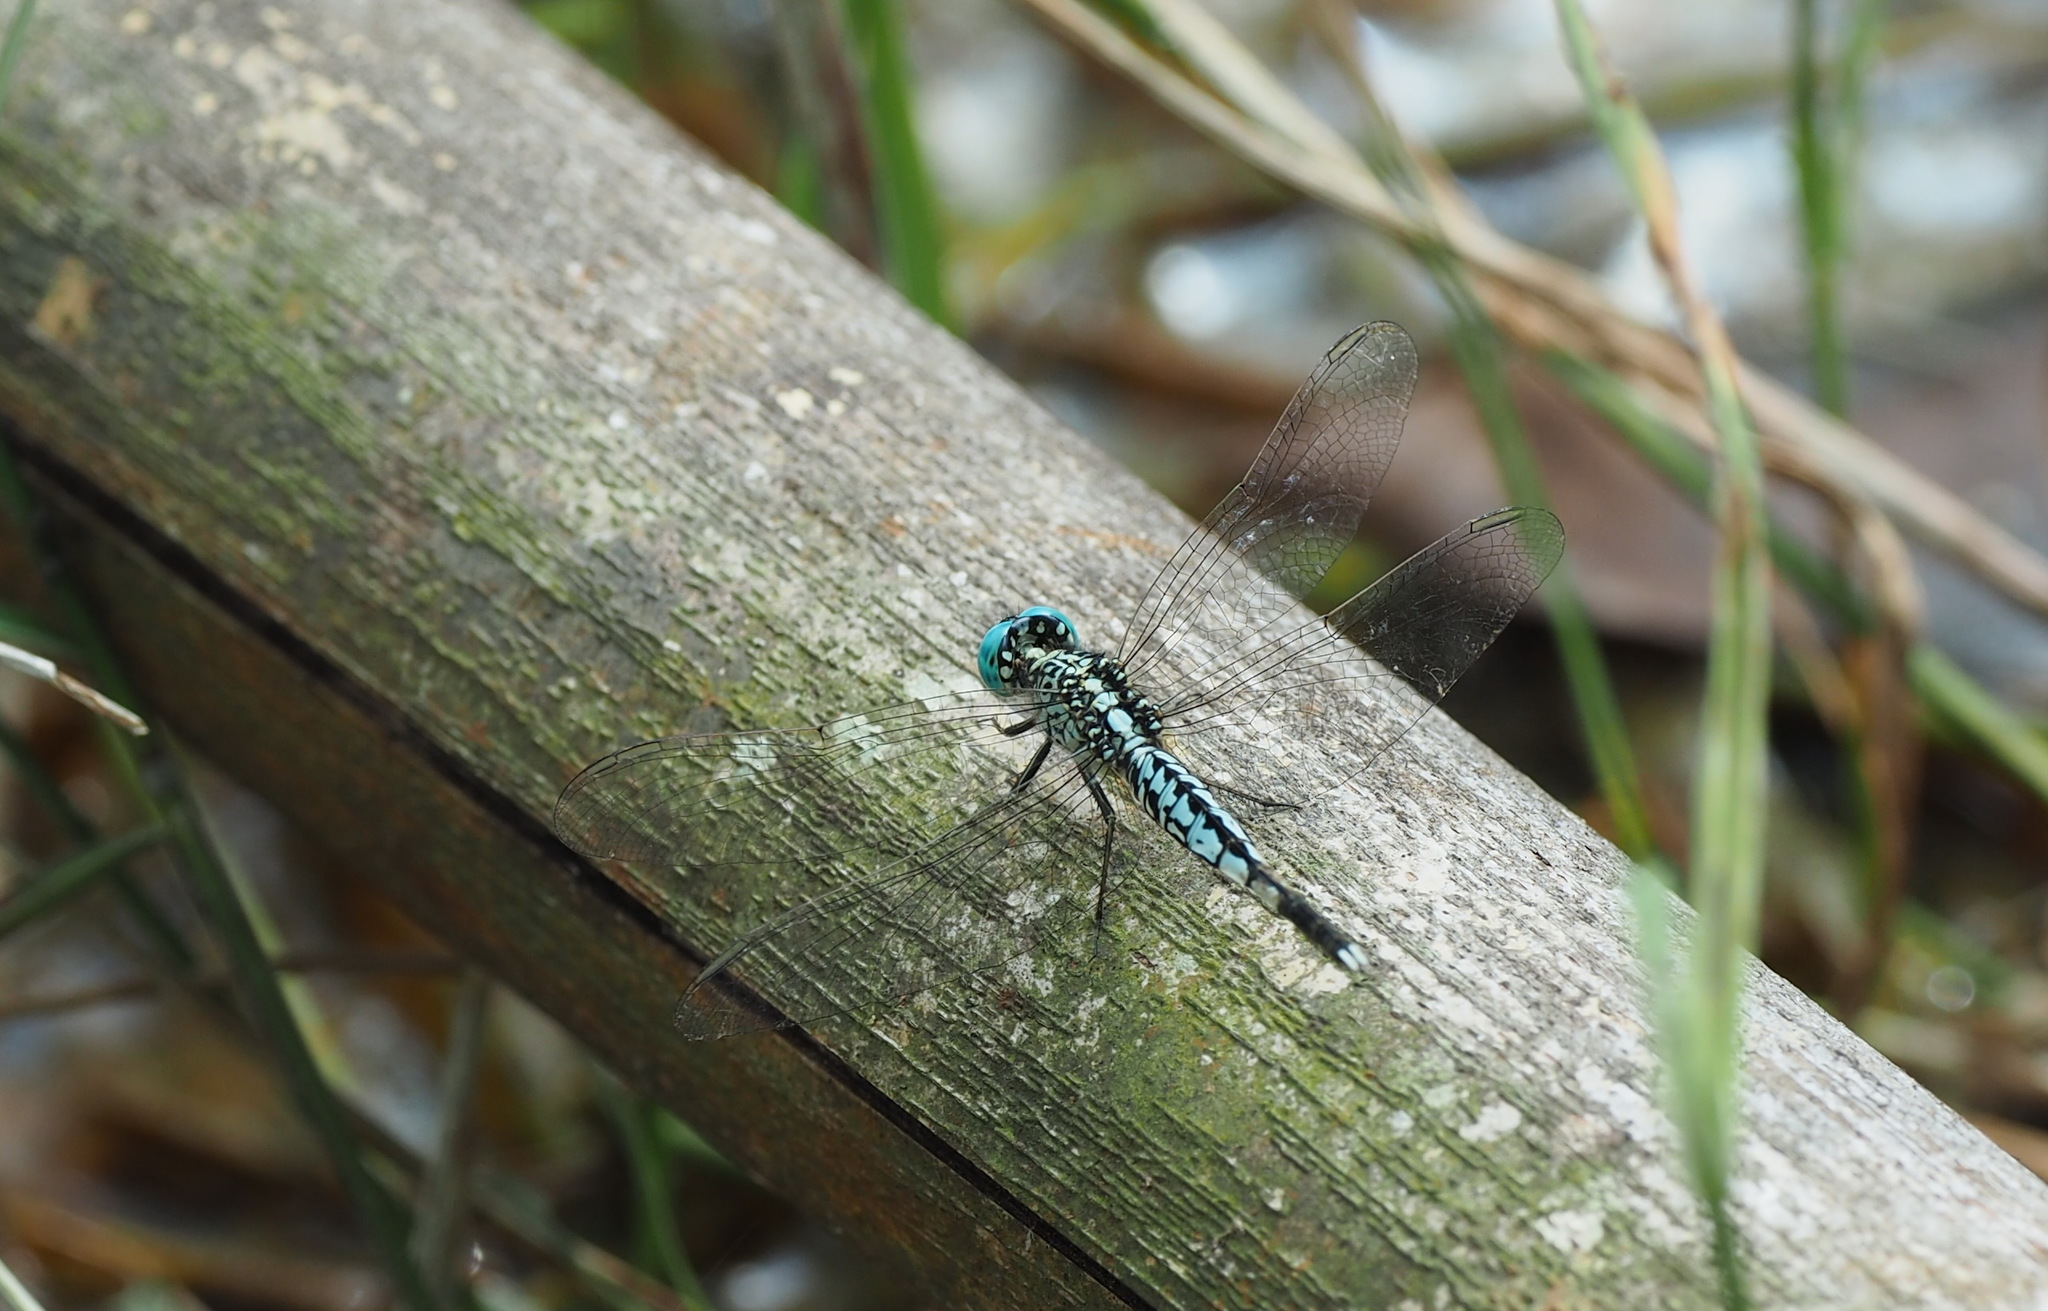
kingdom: Animalia
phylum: Arthropoda
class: Insecta
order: Odonata
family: Libellulidae
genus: Acisoma
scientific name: Acisoma panorpoides
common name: Asian pintail
